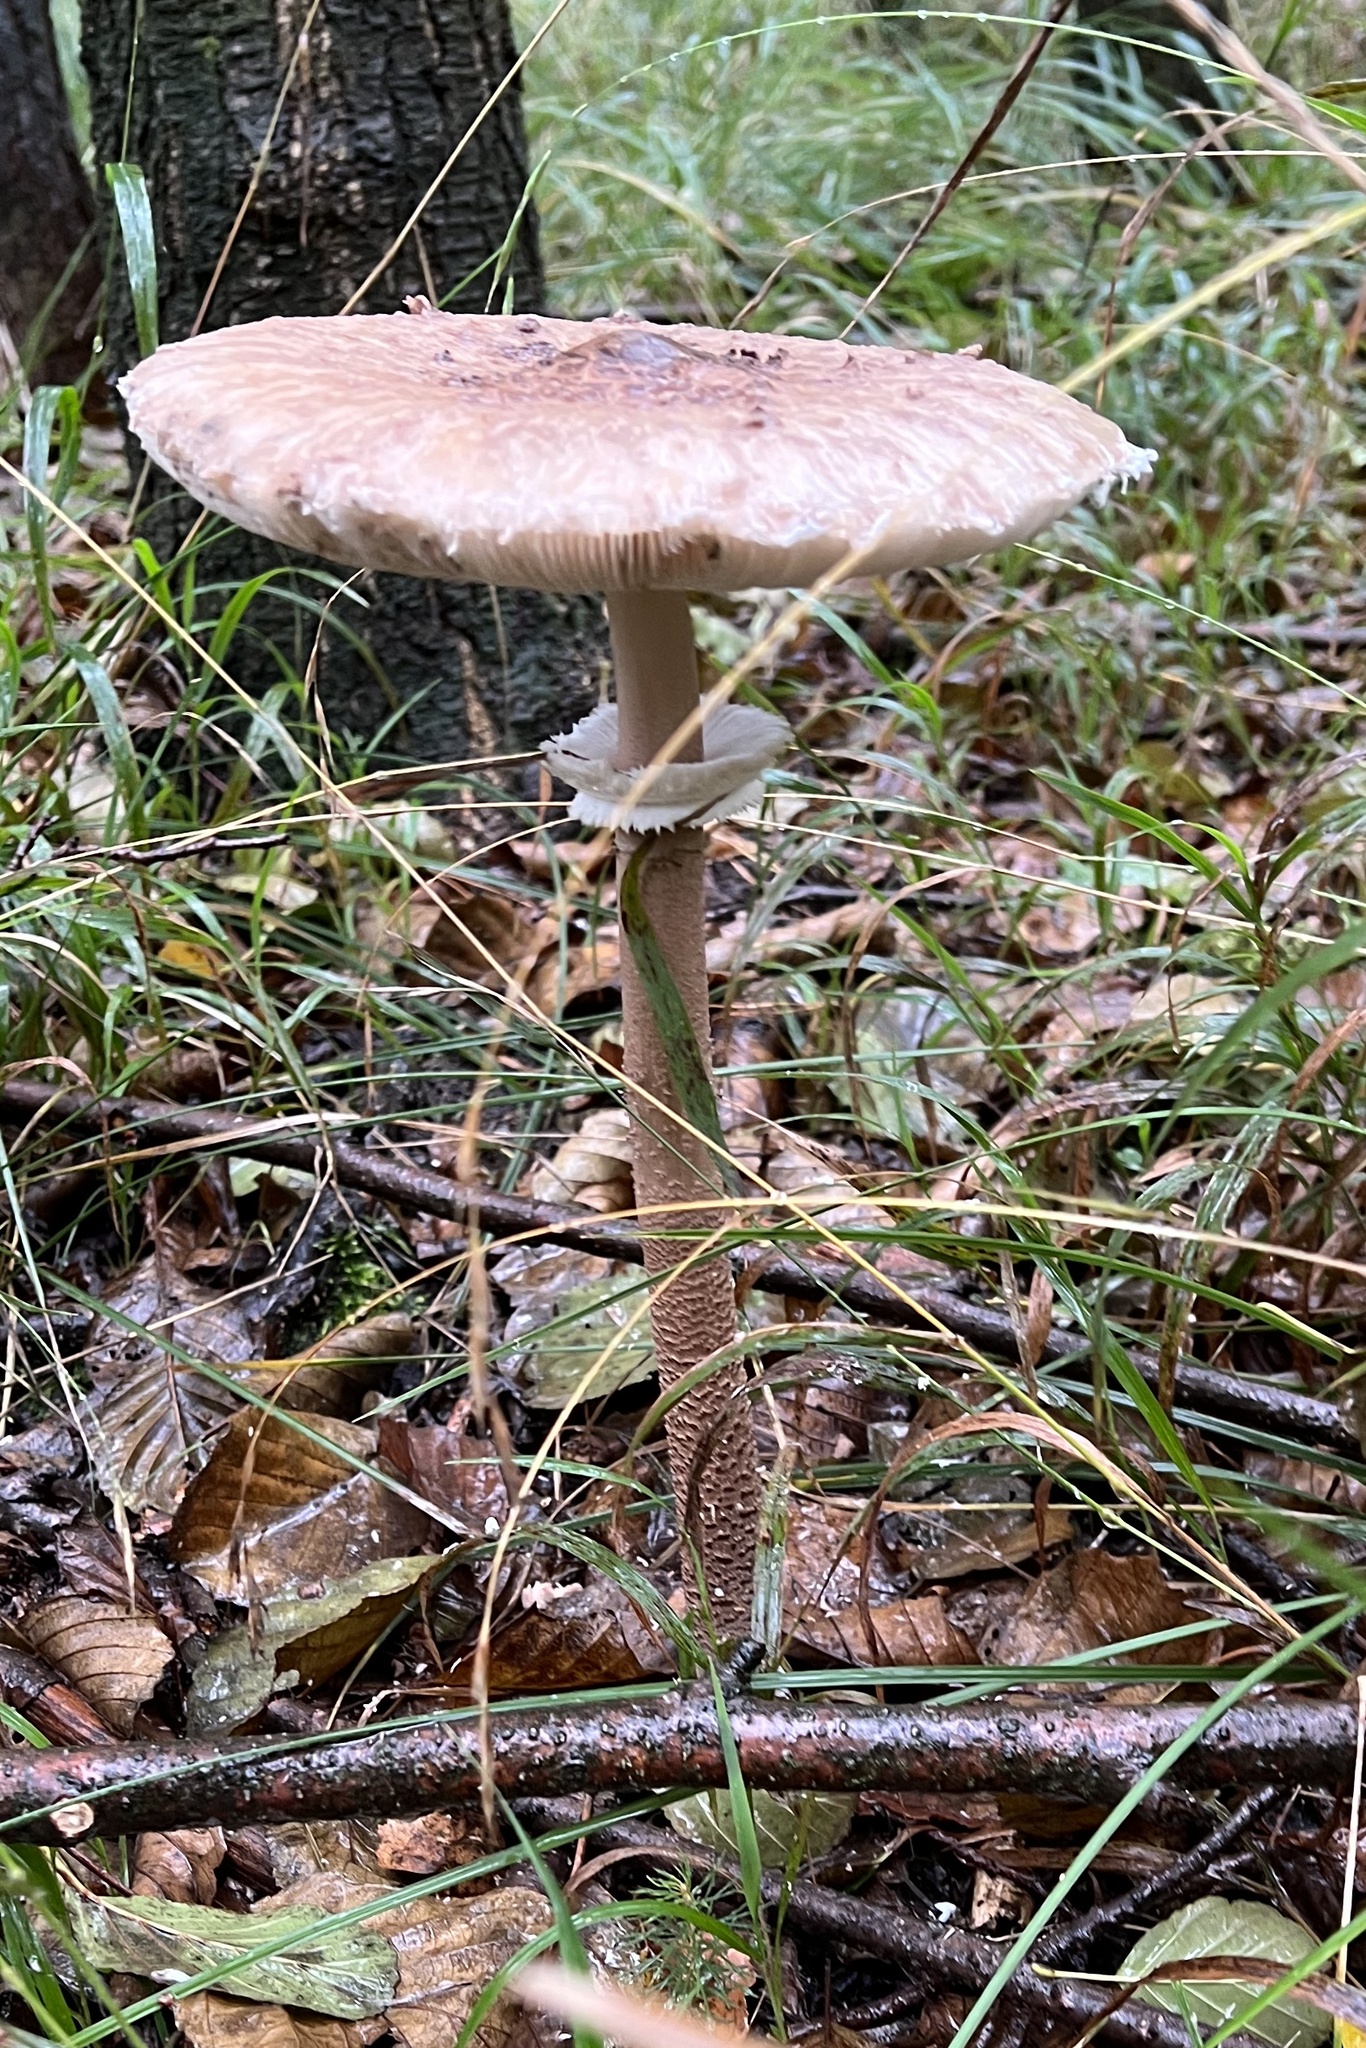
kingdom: Fungi
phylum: Basidiomycota
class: Agaricomycetes
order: Agaricales
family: Agaricaceae
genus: Macrolepiota
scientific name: Macrolepiota procera
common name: Parasol
